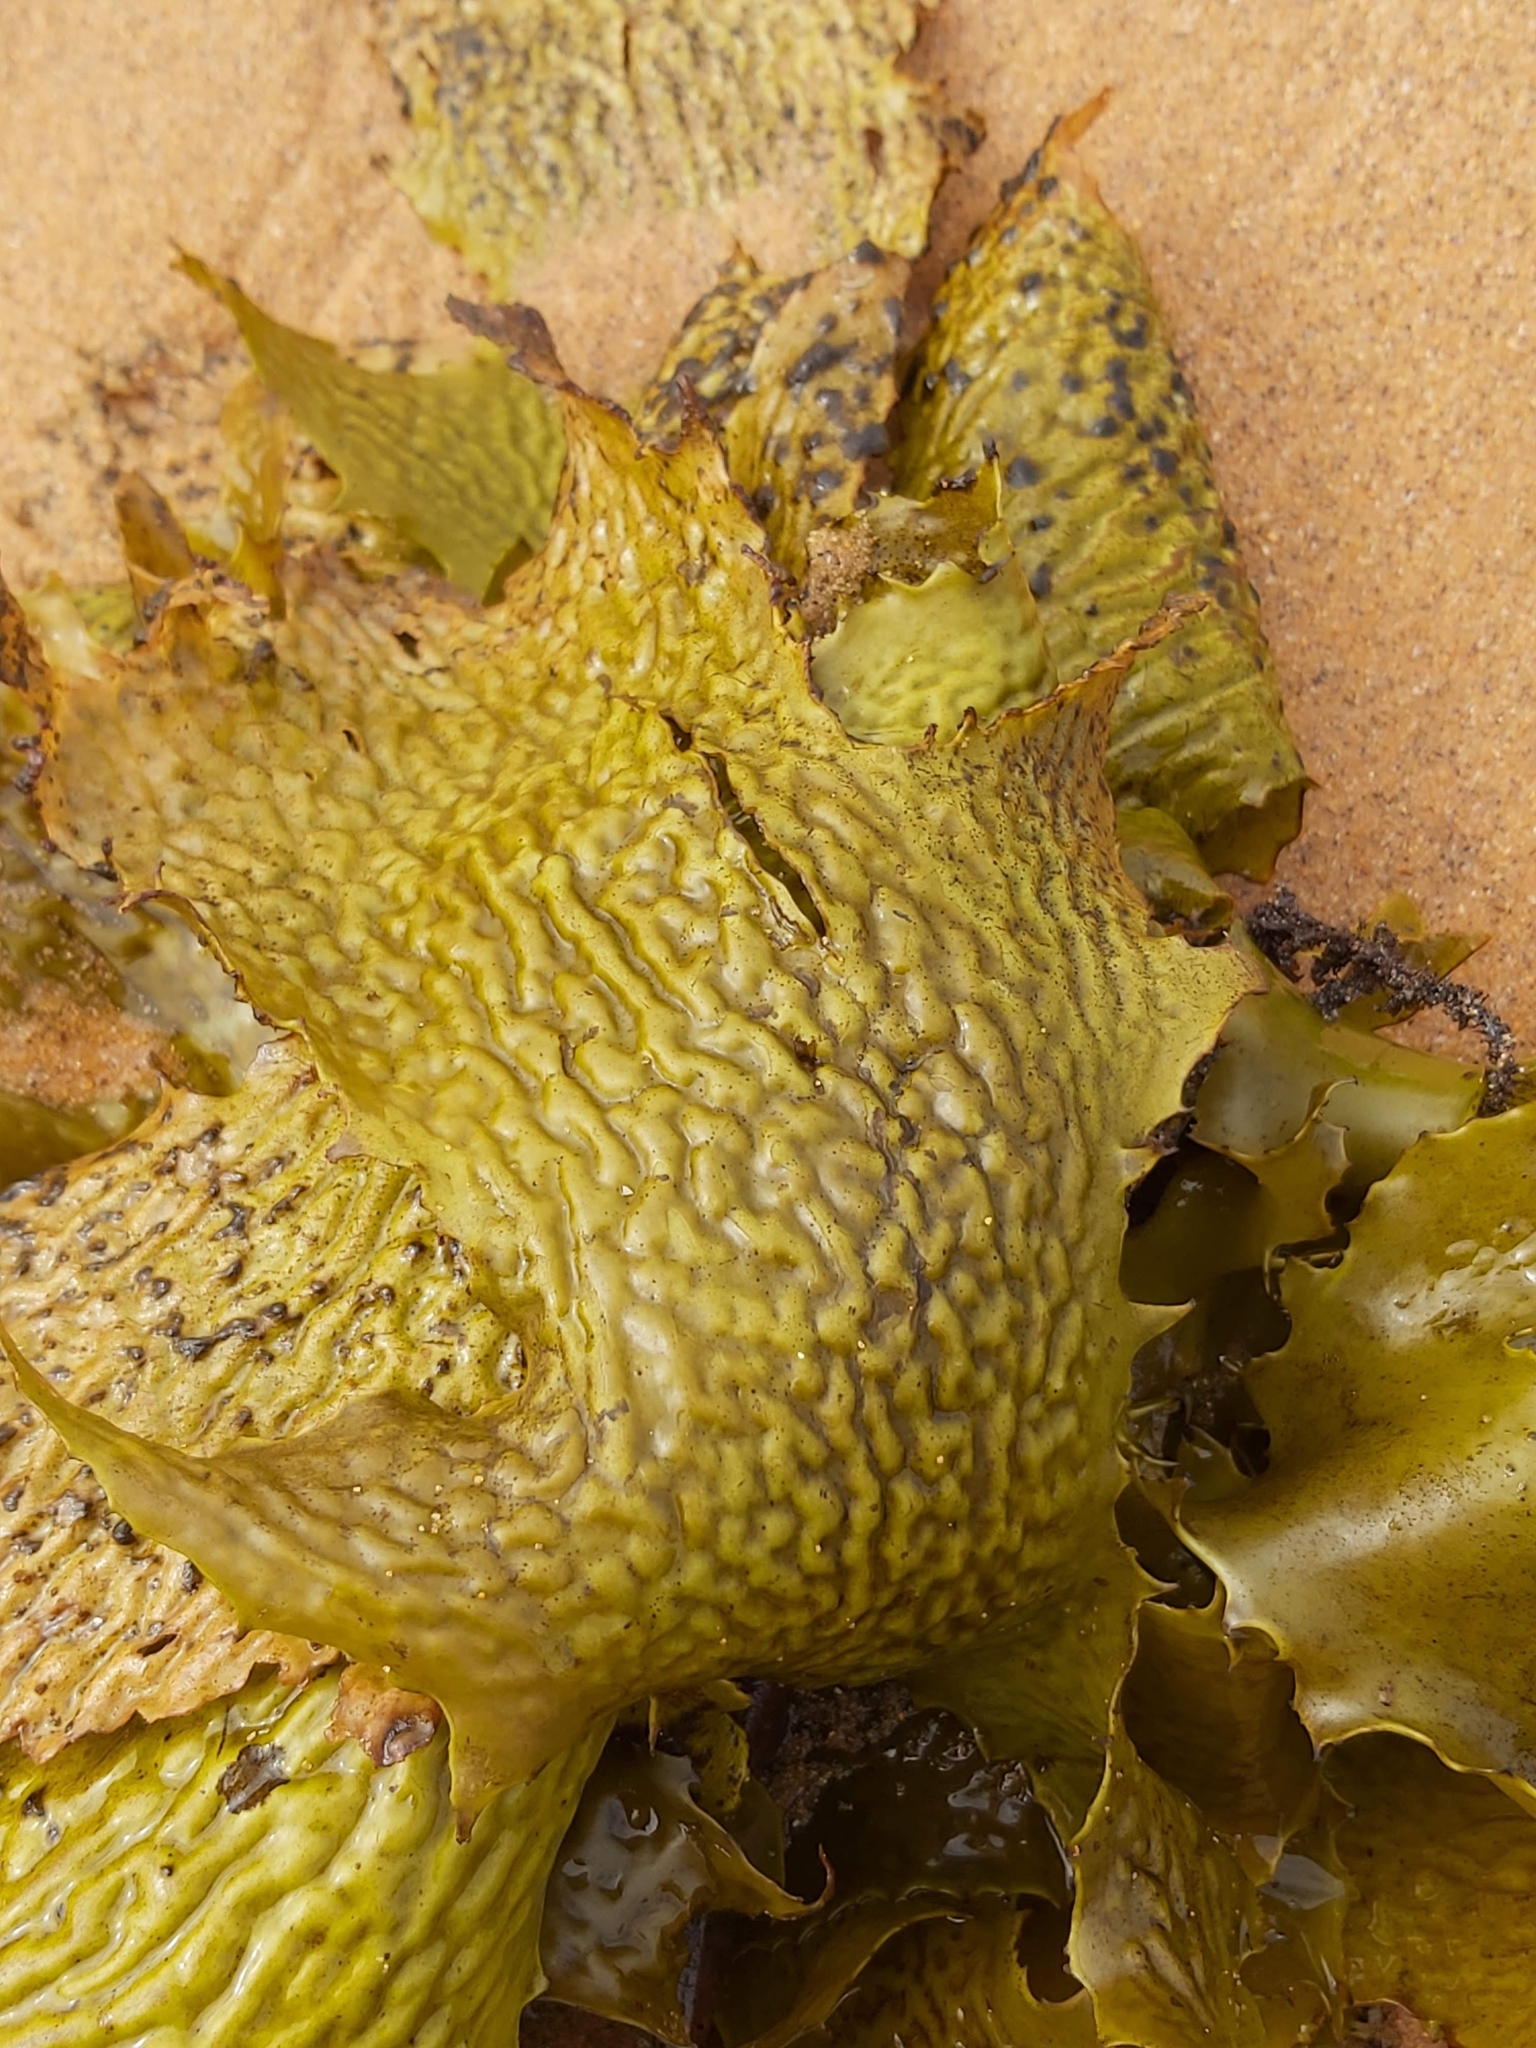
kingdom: Chromista
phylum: Ochrophyta
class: Phaeophyceae
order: Laminariales
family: Lessoniaceae
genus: Ecklonia
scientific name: Ecklonia radiata
